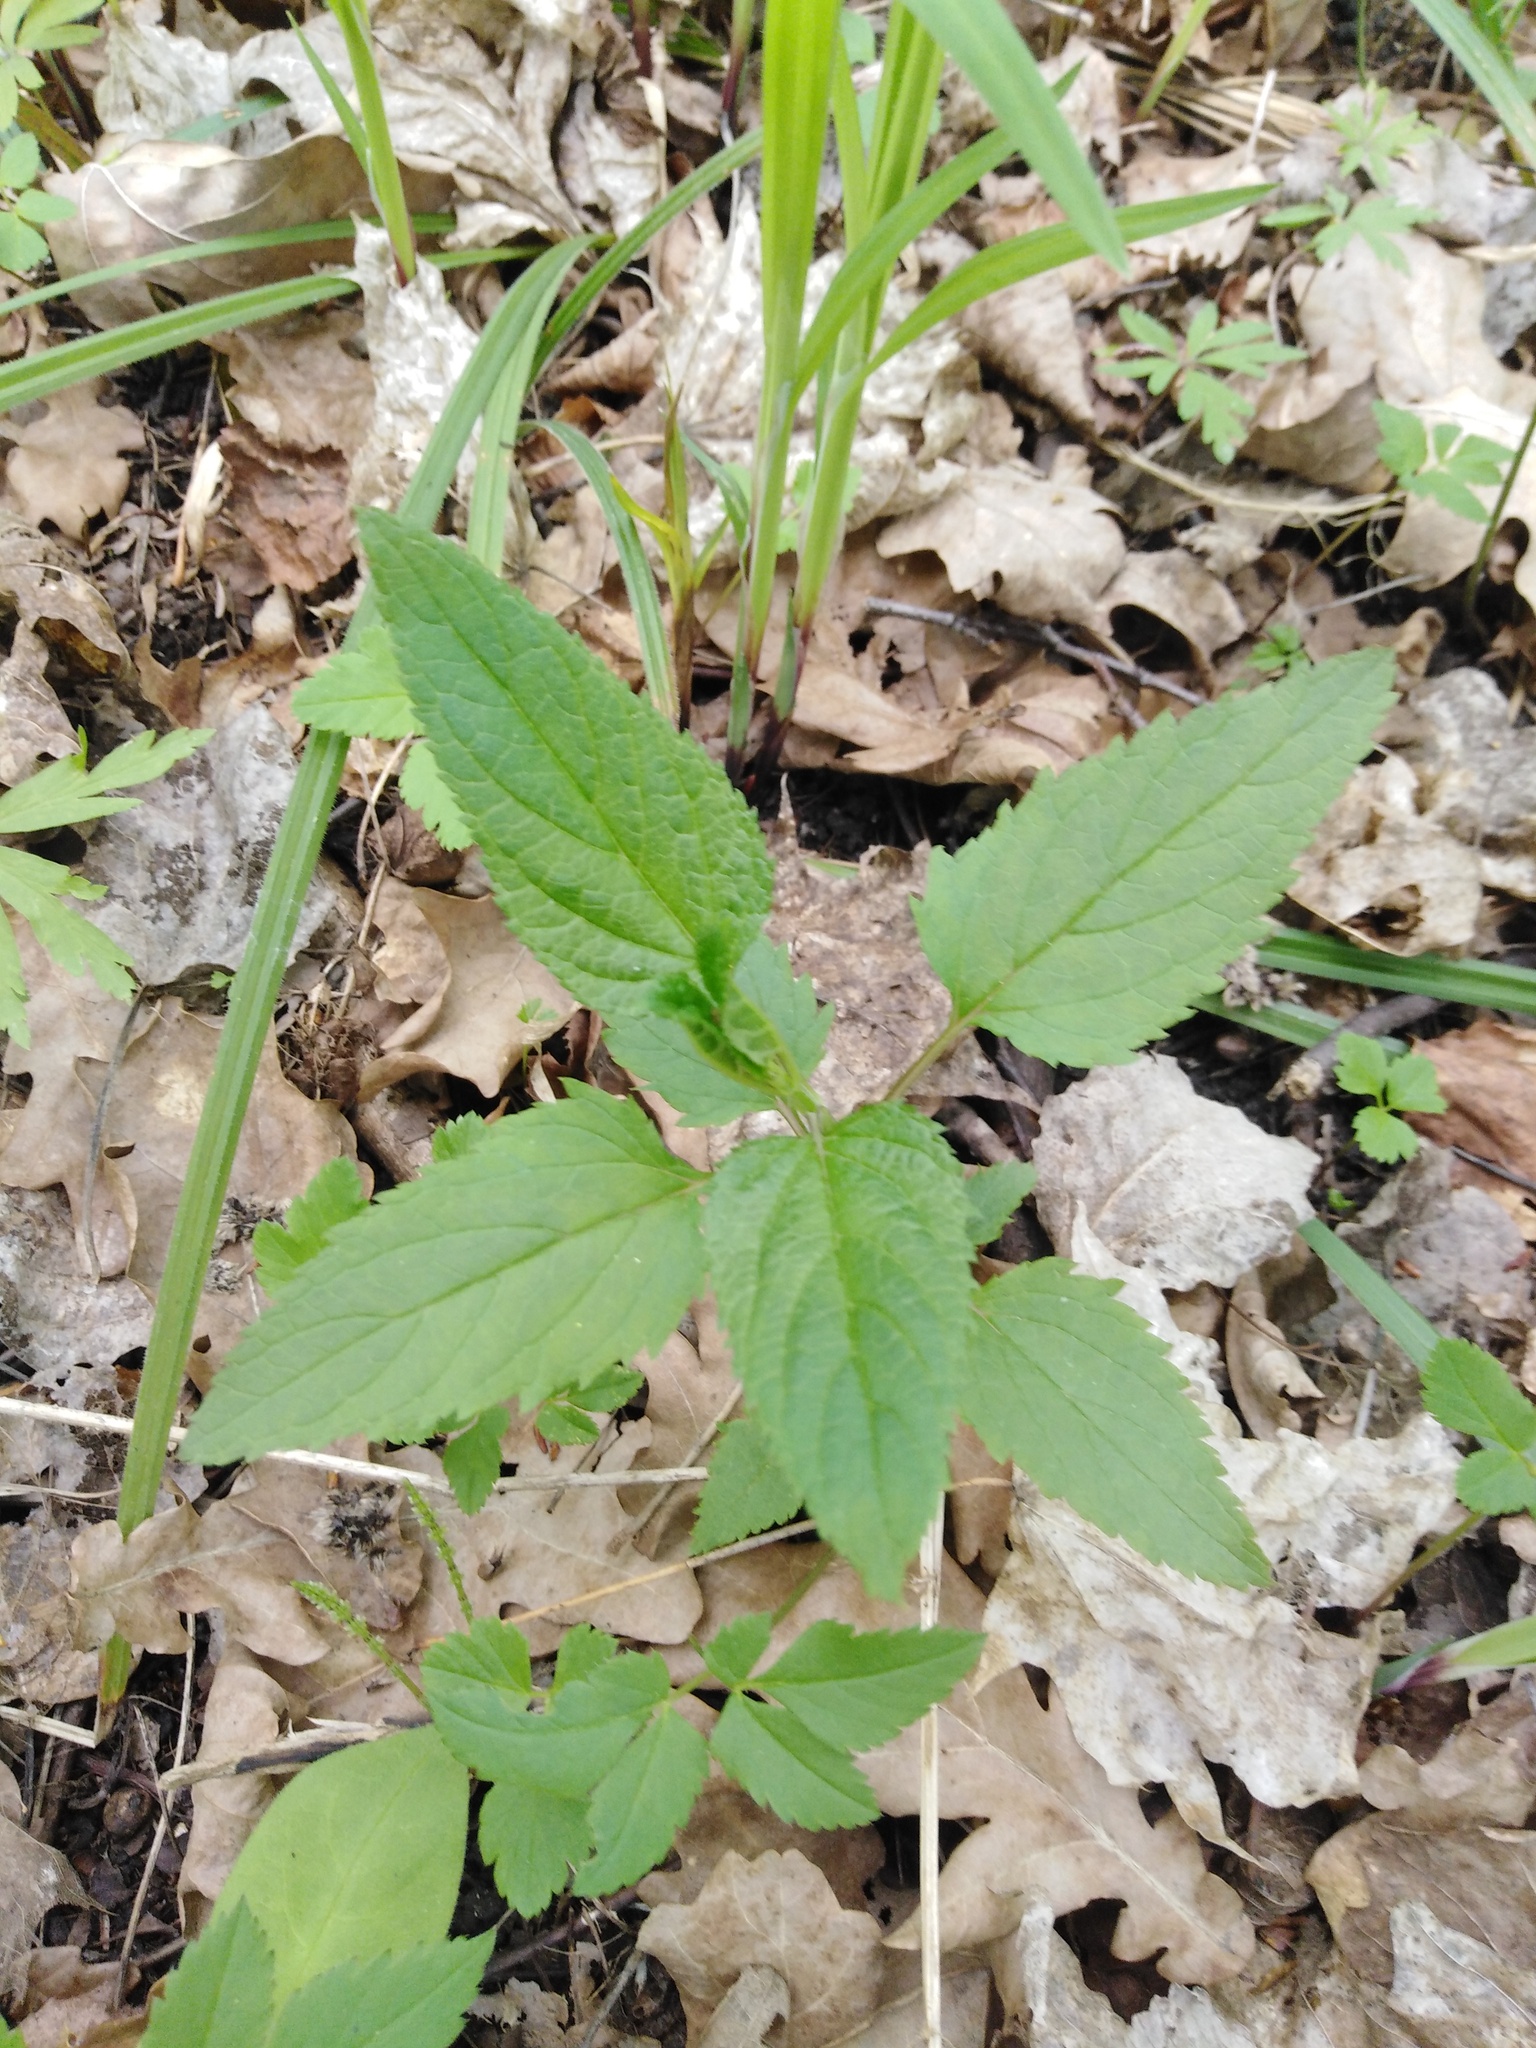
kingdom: Plantae
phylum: Tracheophyta
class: Magnoliopsida
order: Lamiales
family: Scrophulariaceae
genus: Scrophularia
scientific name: Scrophularia nodosa
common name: Common figwort
